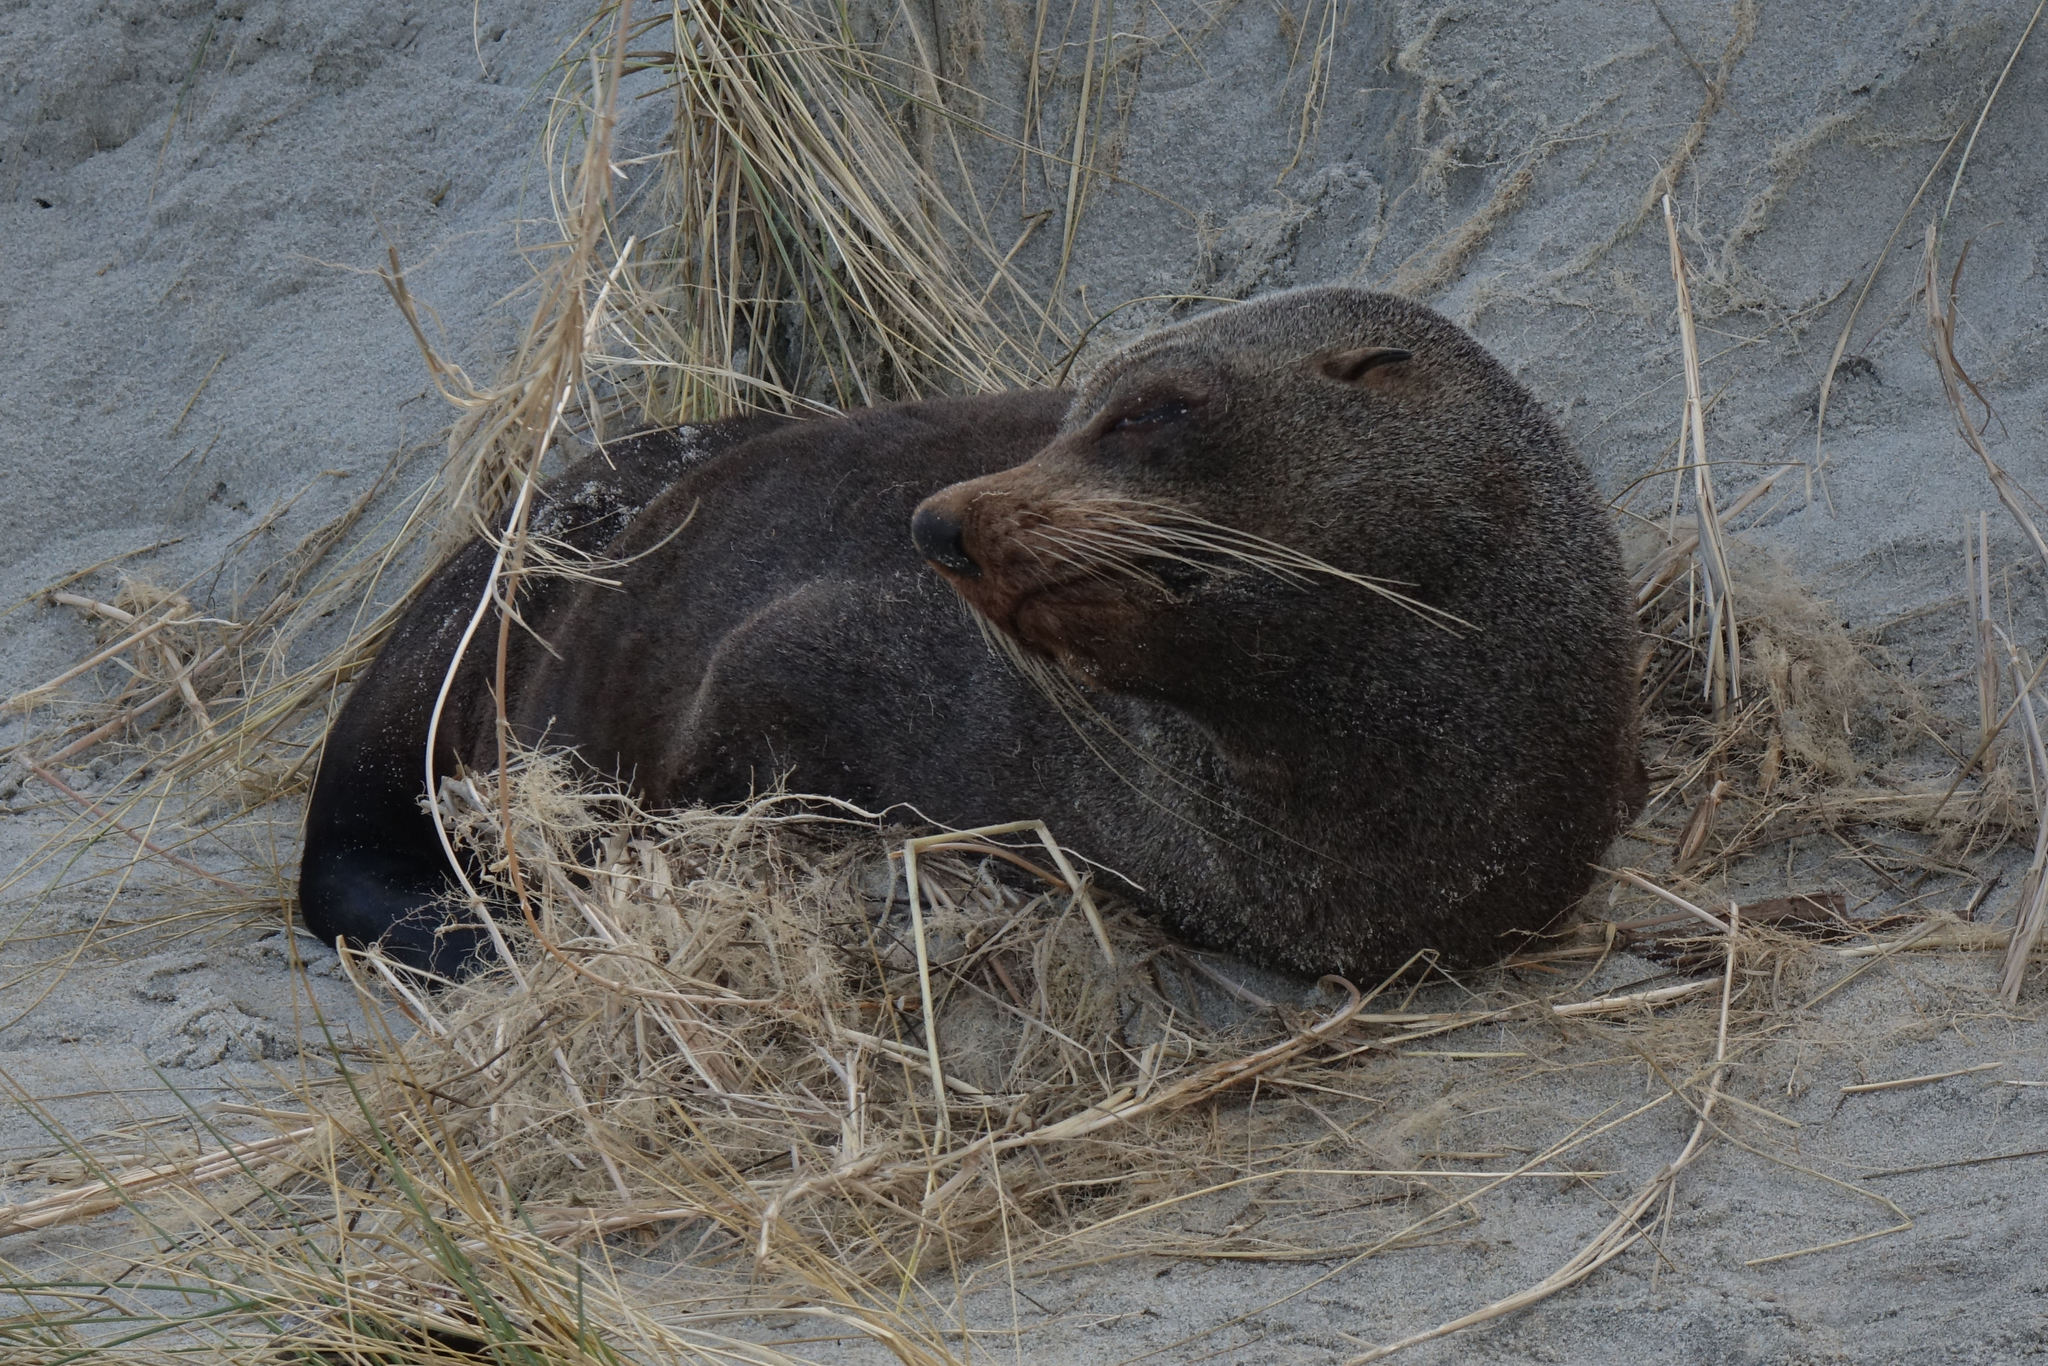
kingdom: Animalia
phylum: Chordata
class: Mammalia
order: Carnivora
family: Otariidae
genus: Arctocephalus
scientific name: Arctocephalus forsteri
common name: New zealand fur seal
